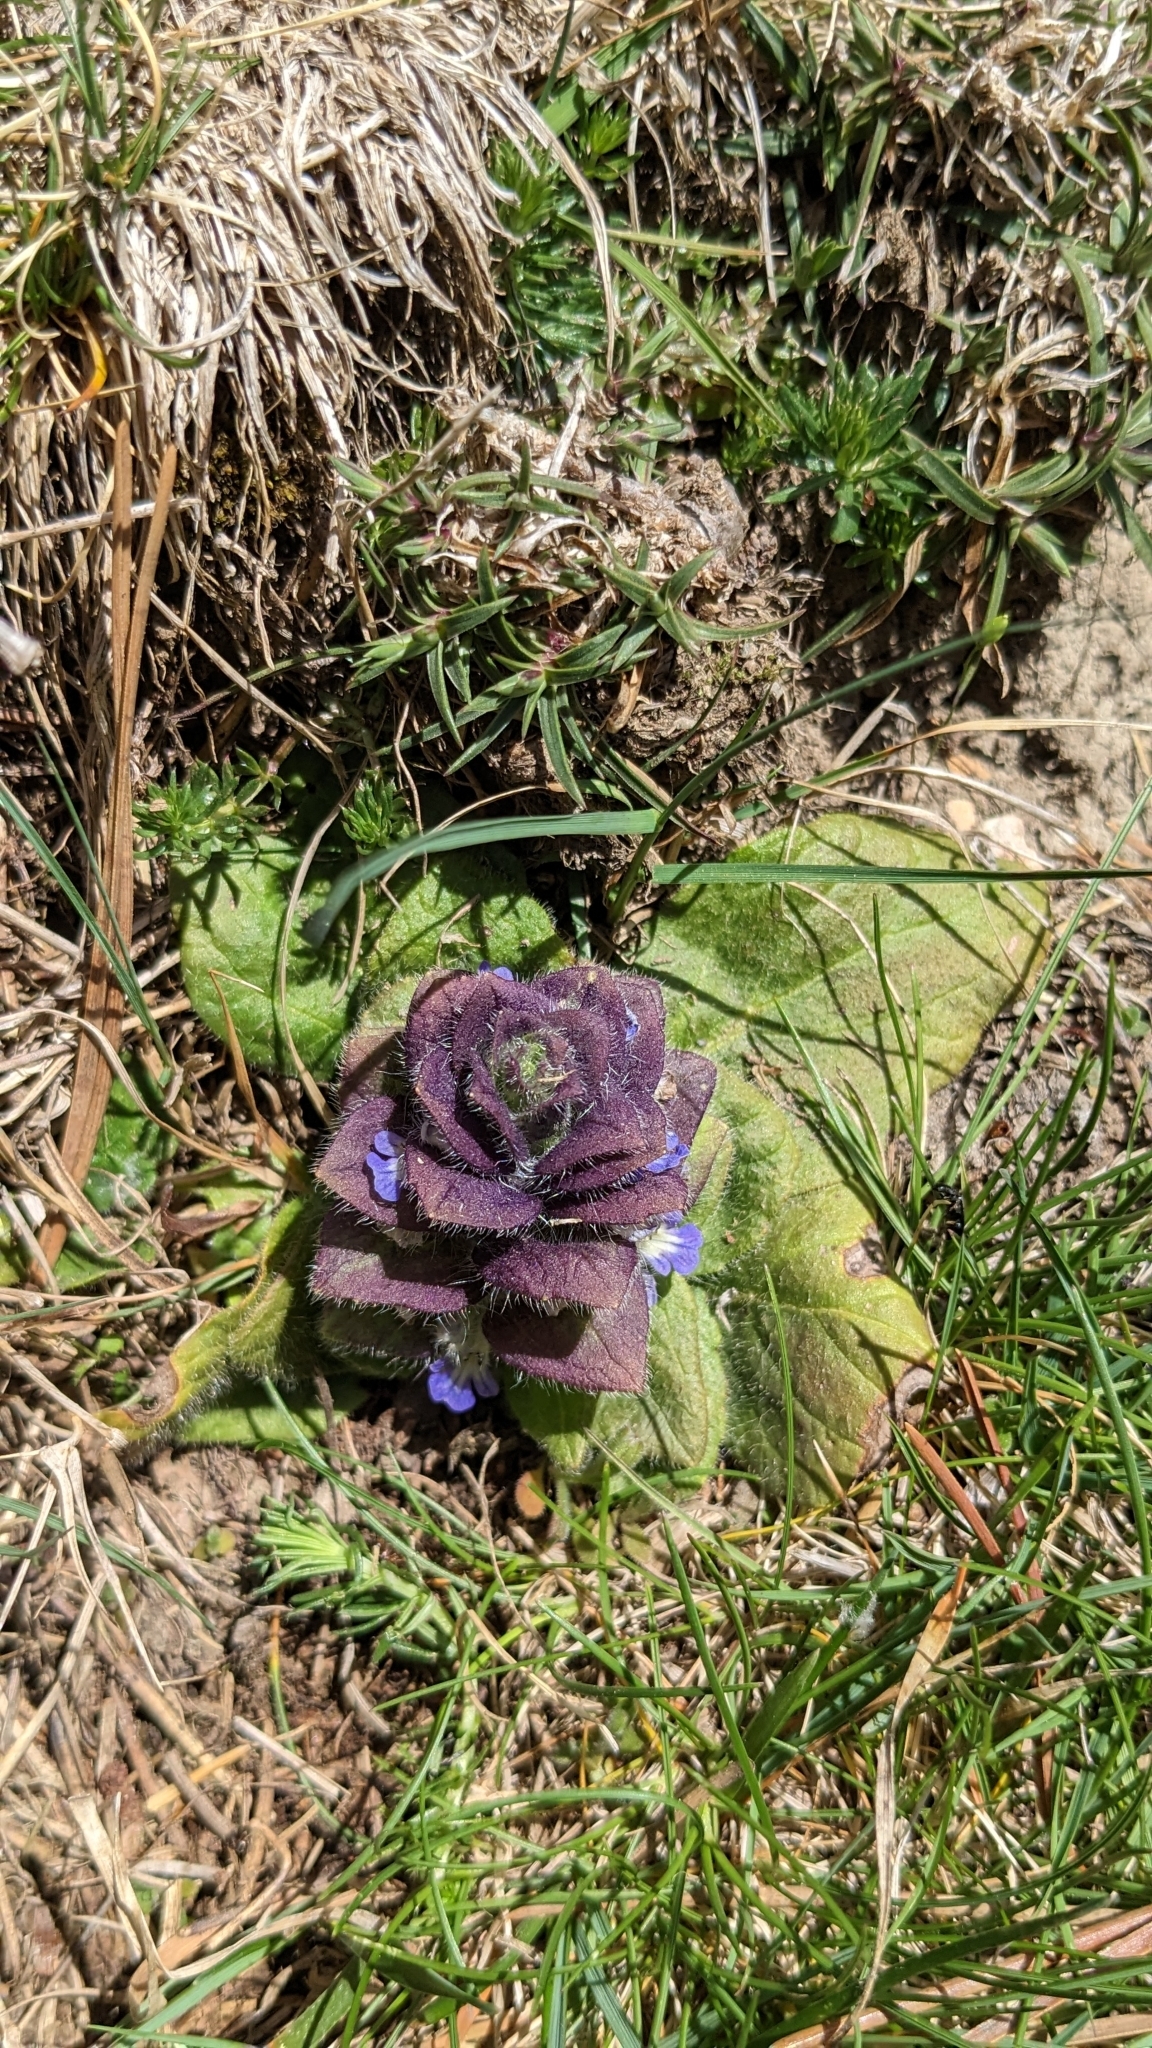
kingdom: Plantae
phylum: Tracheophyta
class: Magnoliopsida
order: Lamiales
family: Lamiaceae
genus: Ajuga
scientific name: Ajuga pyramidalis
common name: Pyramid bugle
